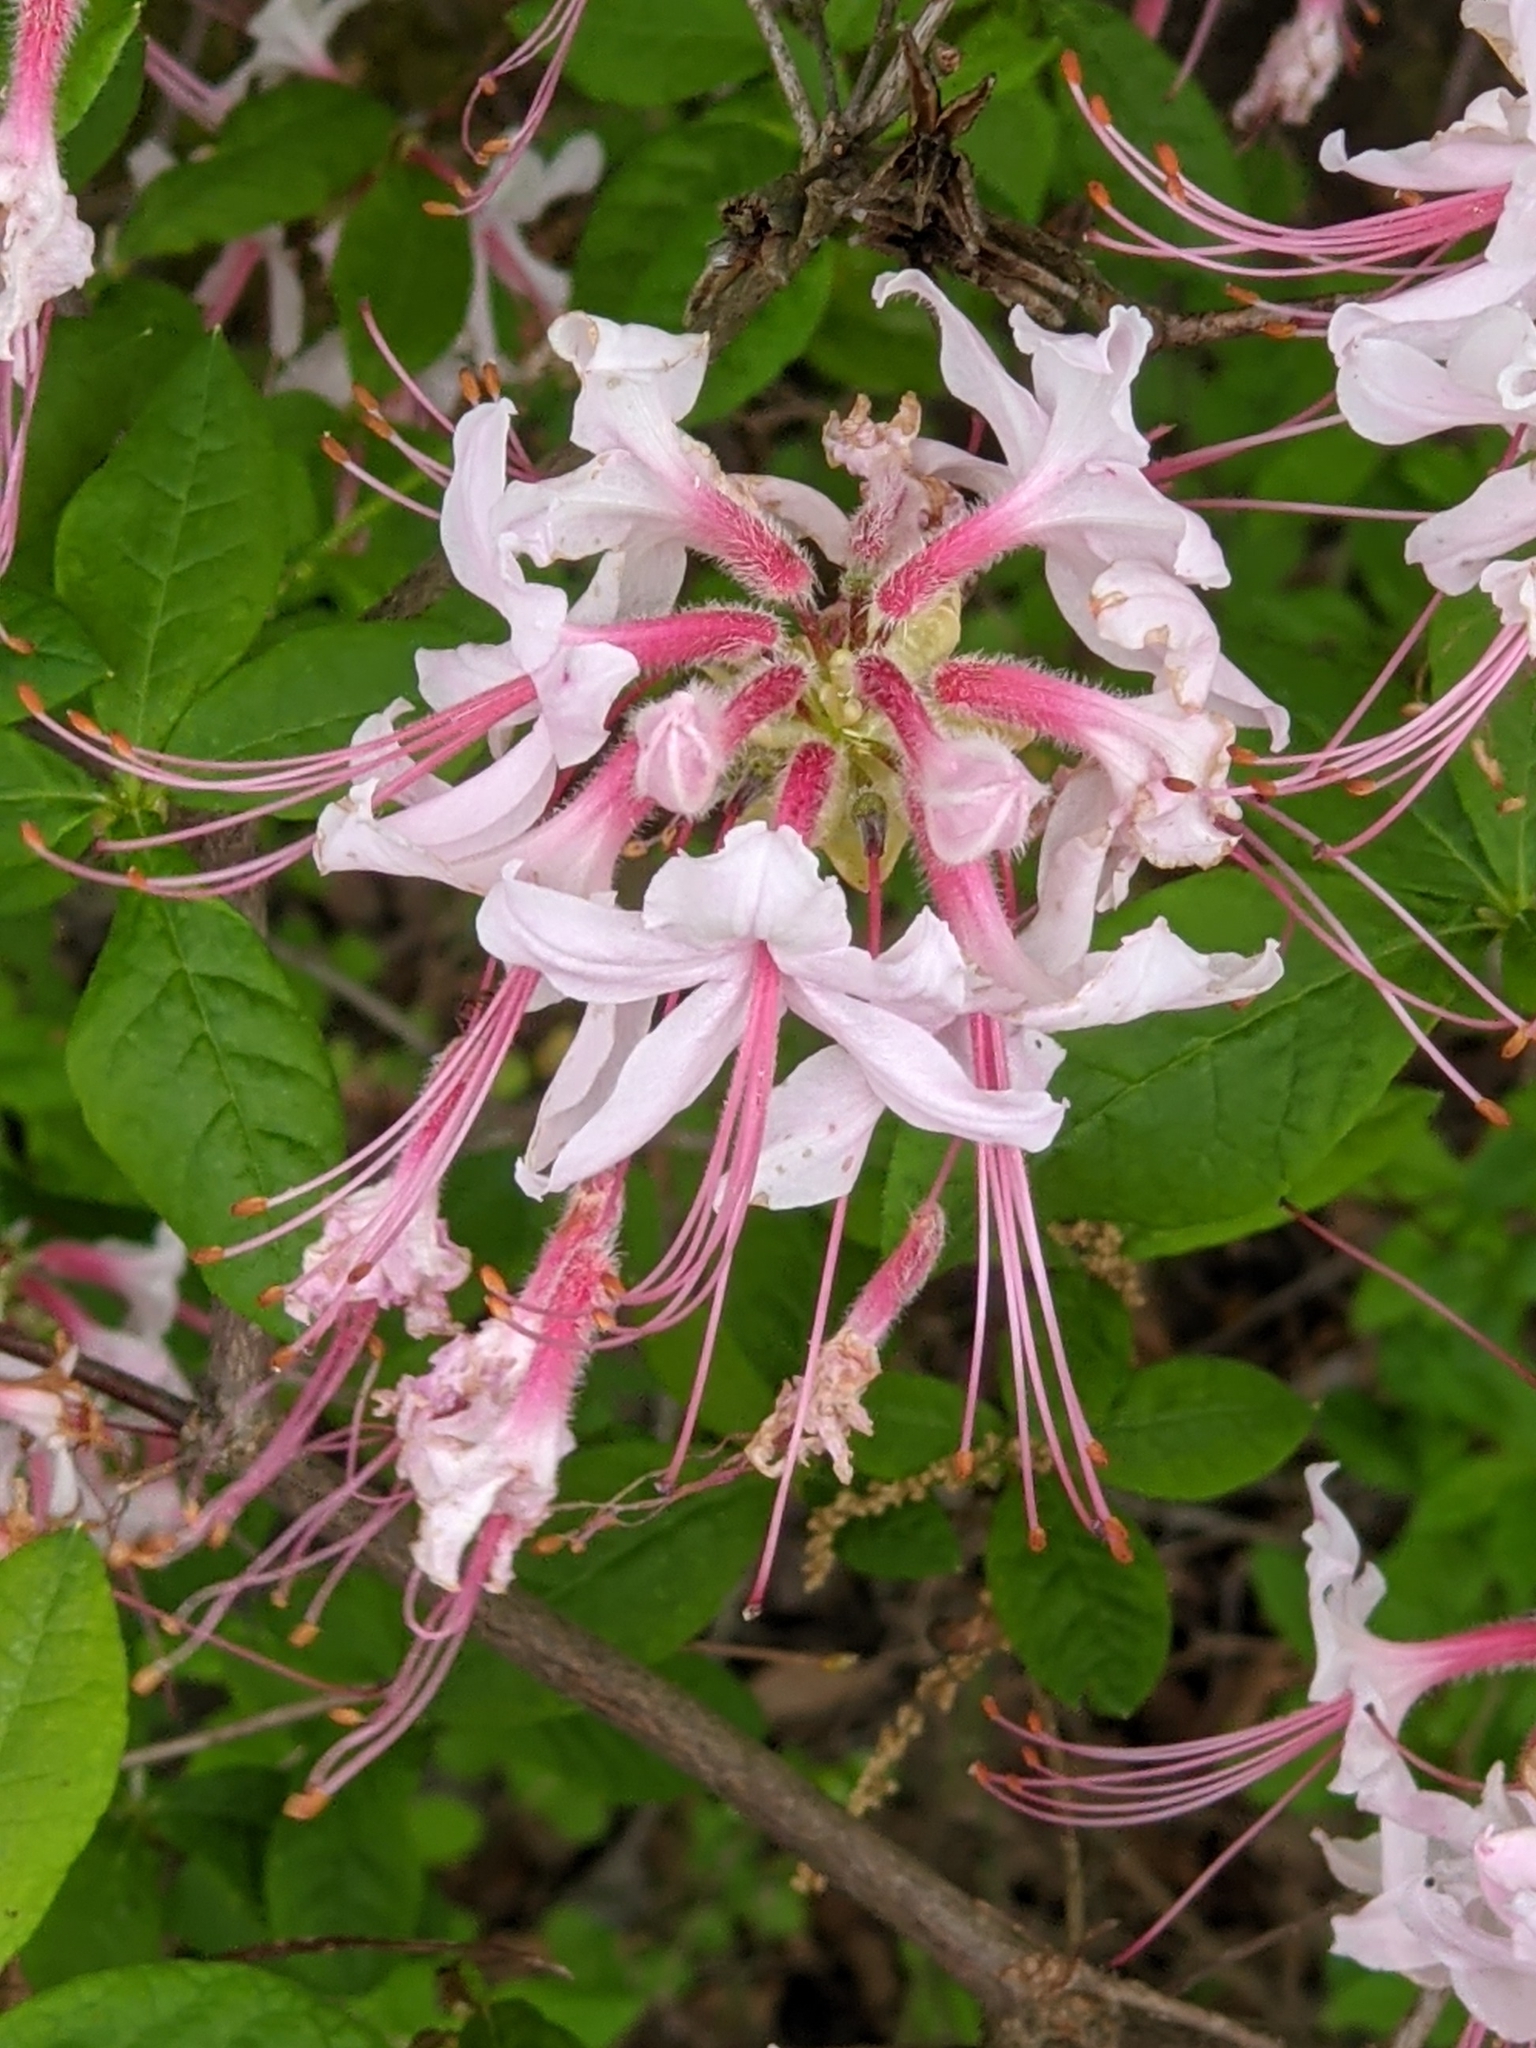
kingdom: Plantae
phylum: Tracheophyta
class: Magnoliopsida
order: Ericales
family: Ericaceae
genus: Rhododendron
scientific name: Rhododendron periclymenoides
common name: Election-pink
